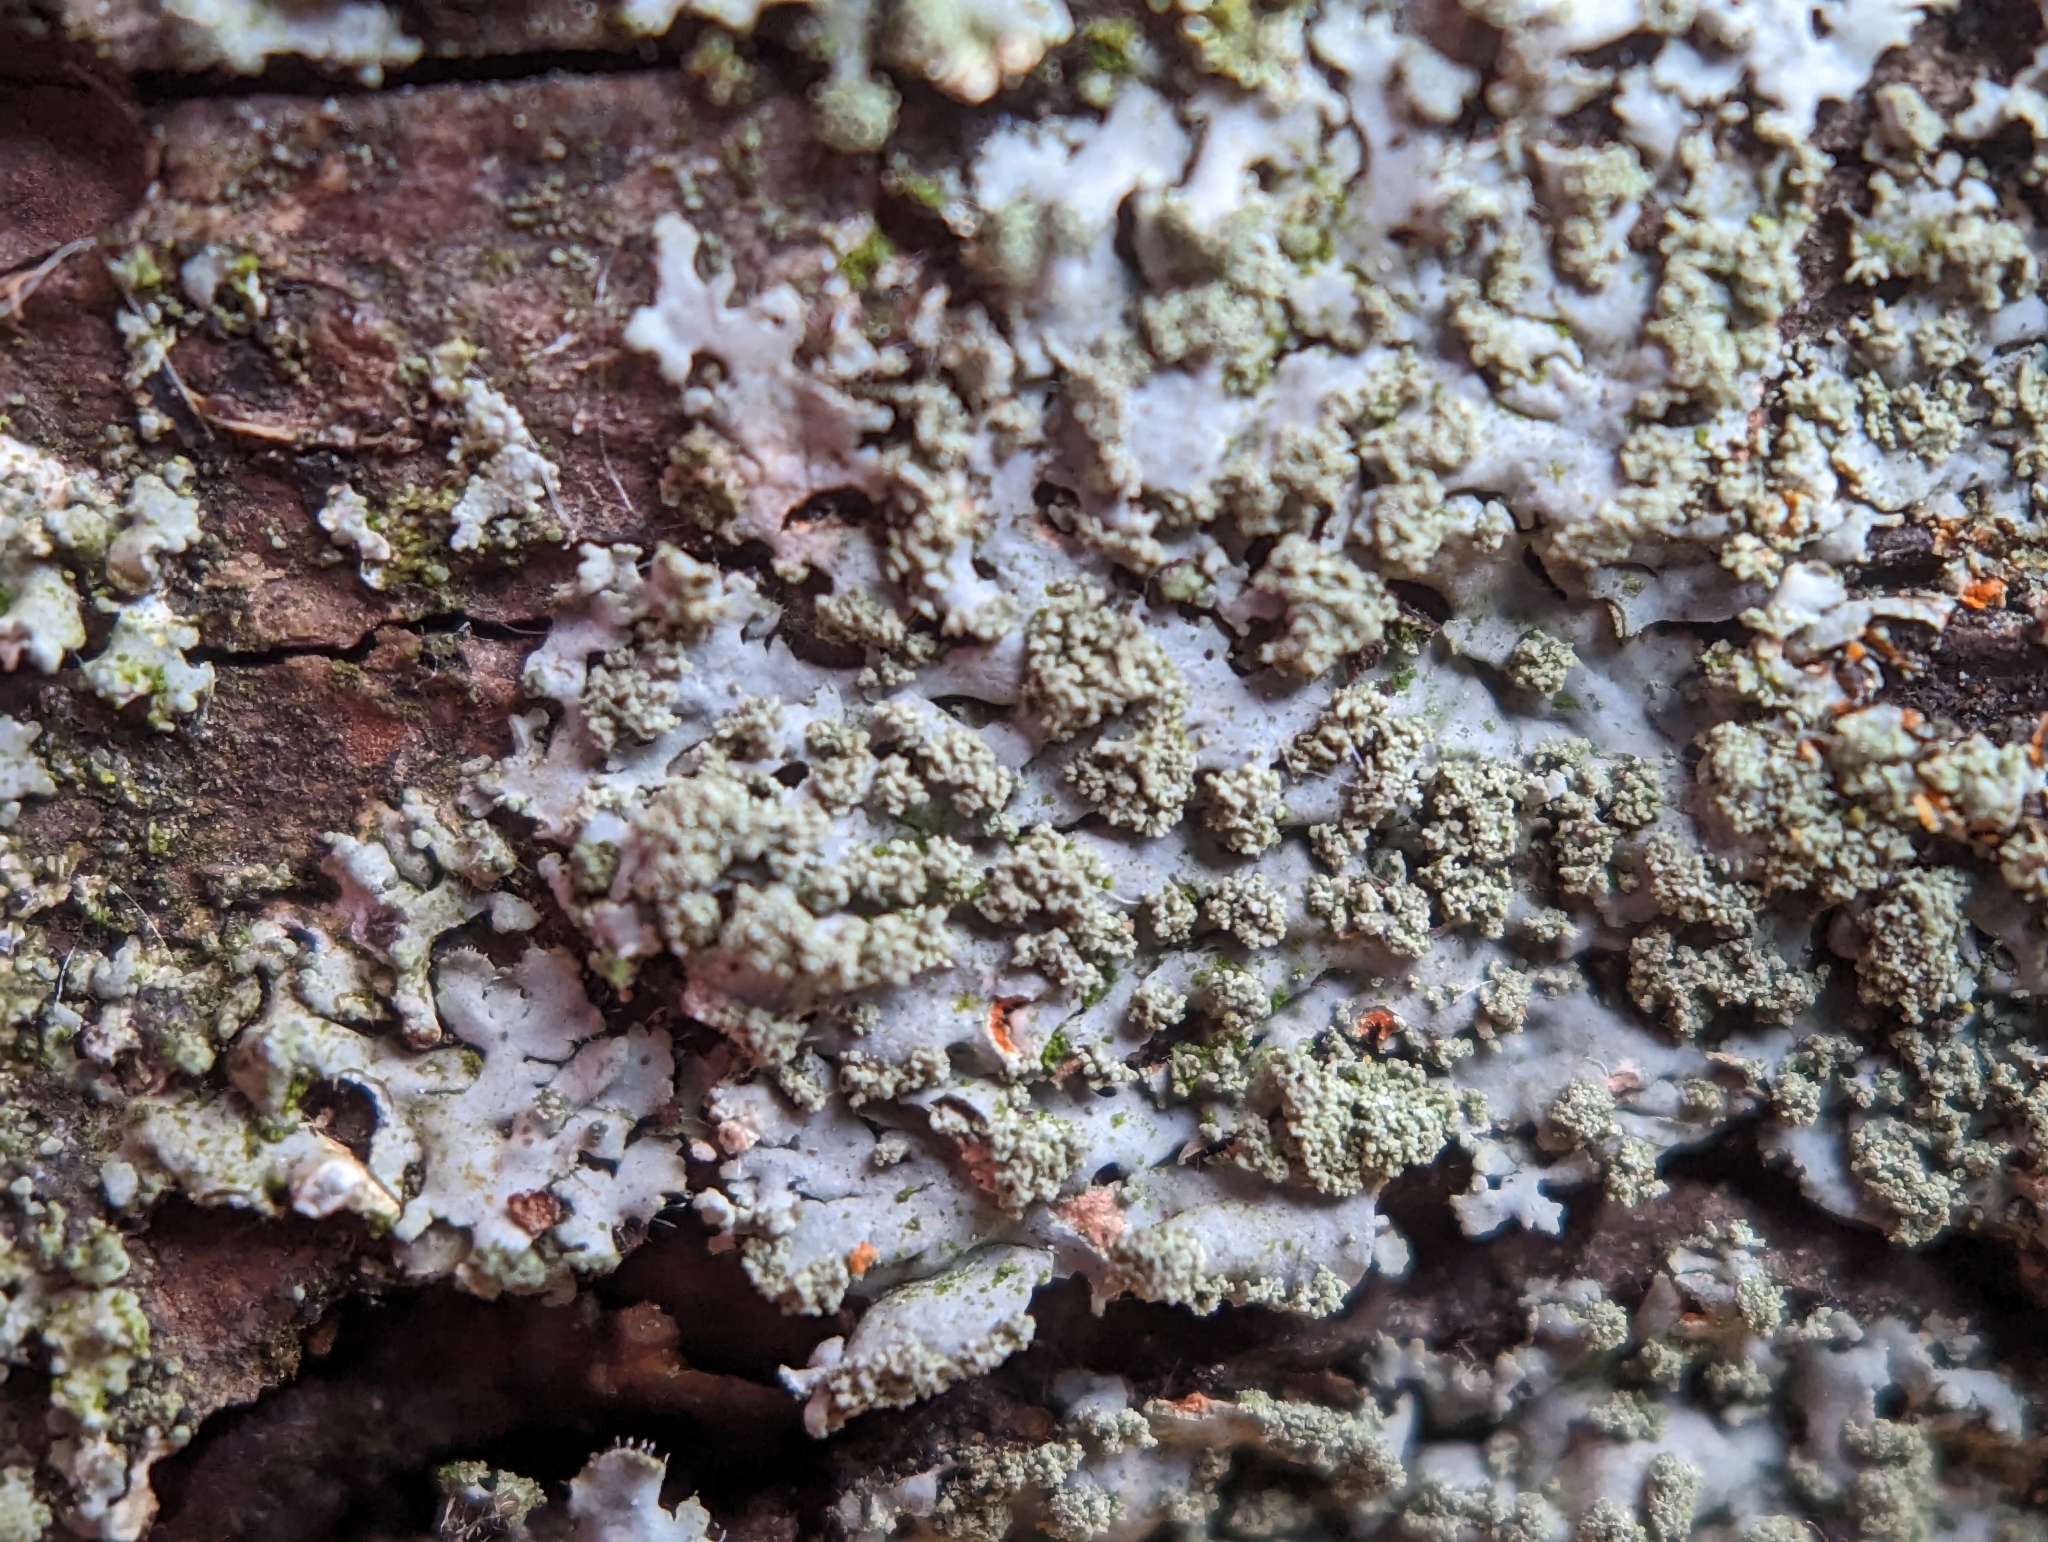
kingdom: Fungi
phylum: Ascomycota
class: Lecanoromycetes
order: Caliciales
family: Physciaceae
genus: Phaeophyscia
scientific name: Phaeophyscia rubropulchra
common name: Orange-cored shadow lichen
